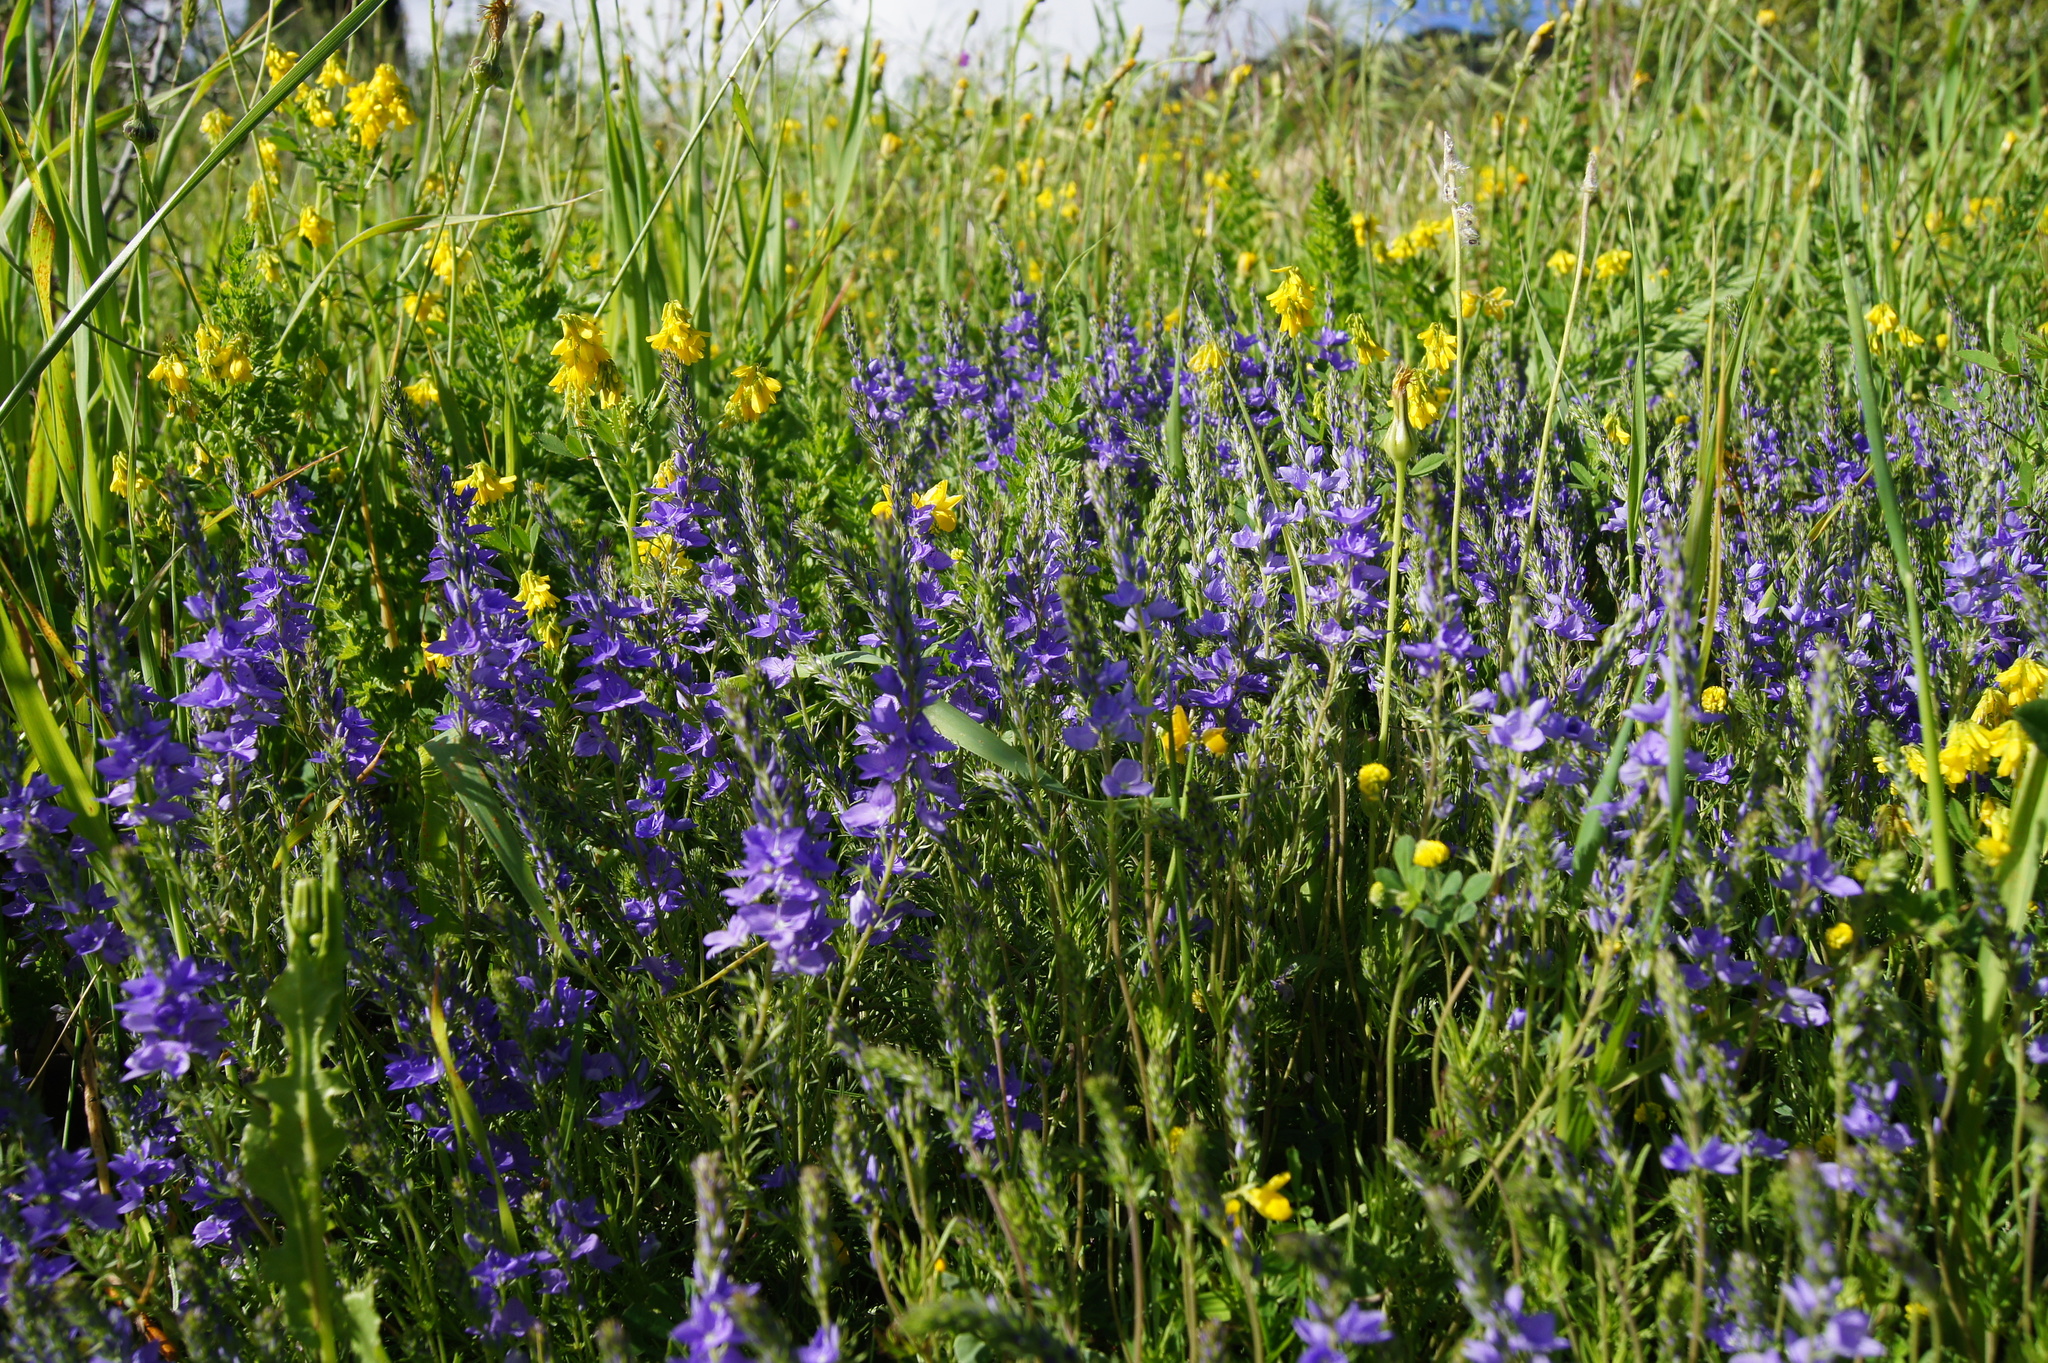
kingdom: Plantae
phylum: Tracheophyta
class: Magnoliopsida
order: Lamiales
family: Plantaginaceae
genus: Veronica
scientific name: Veronica dalmatica
